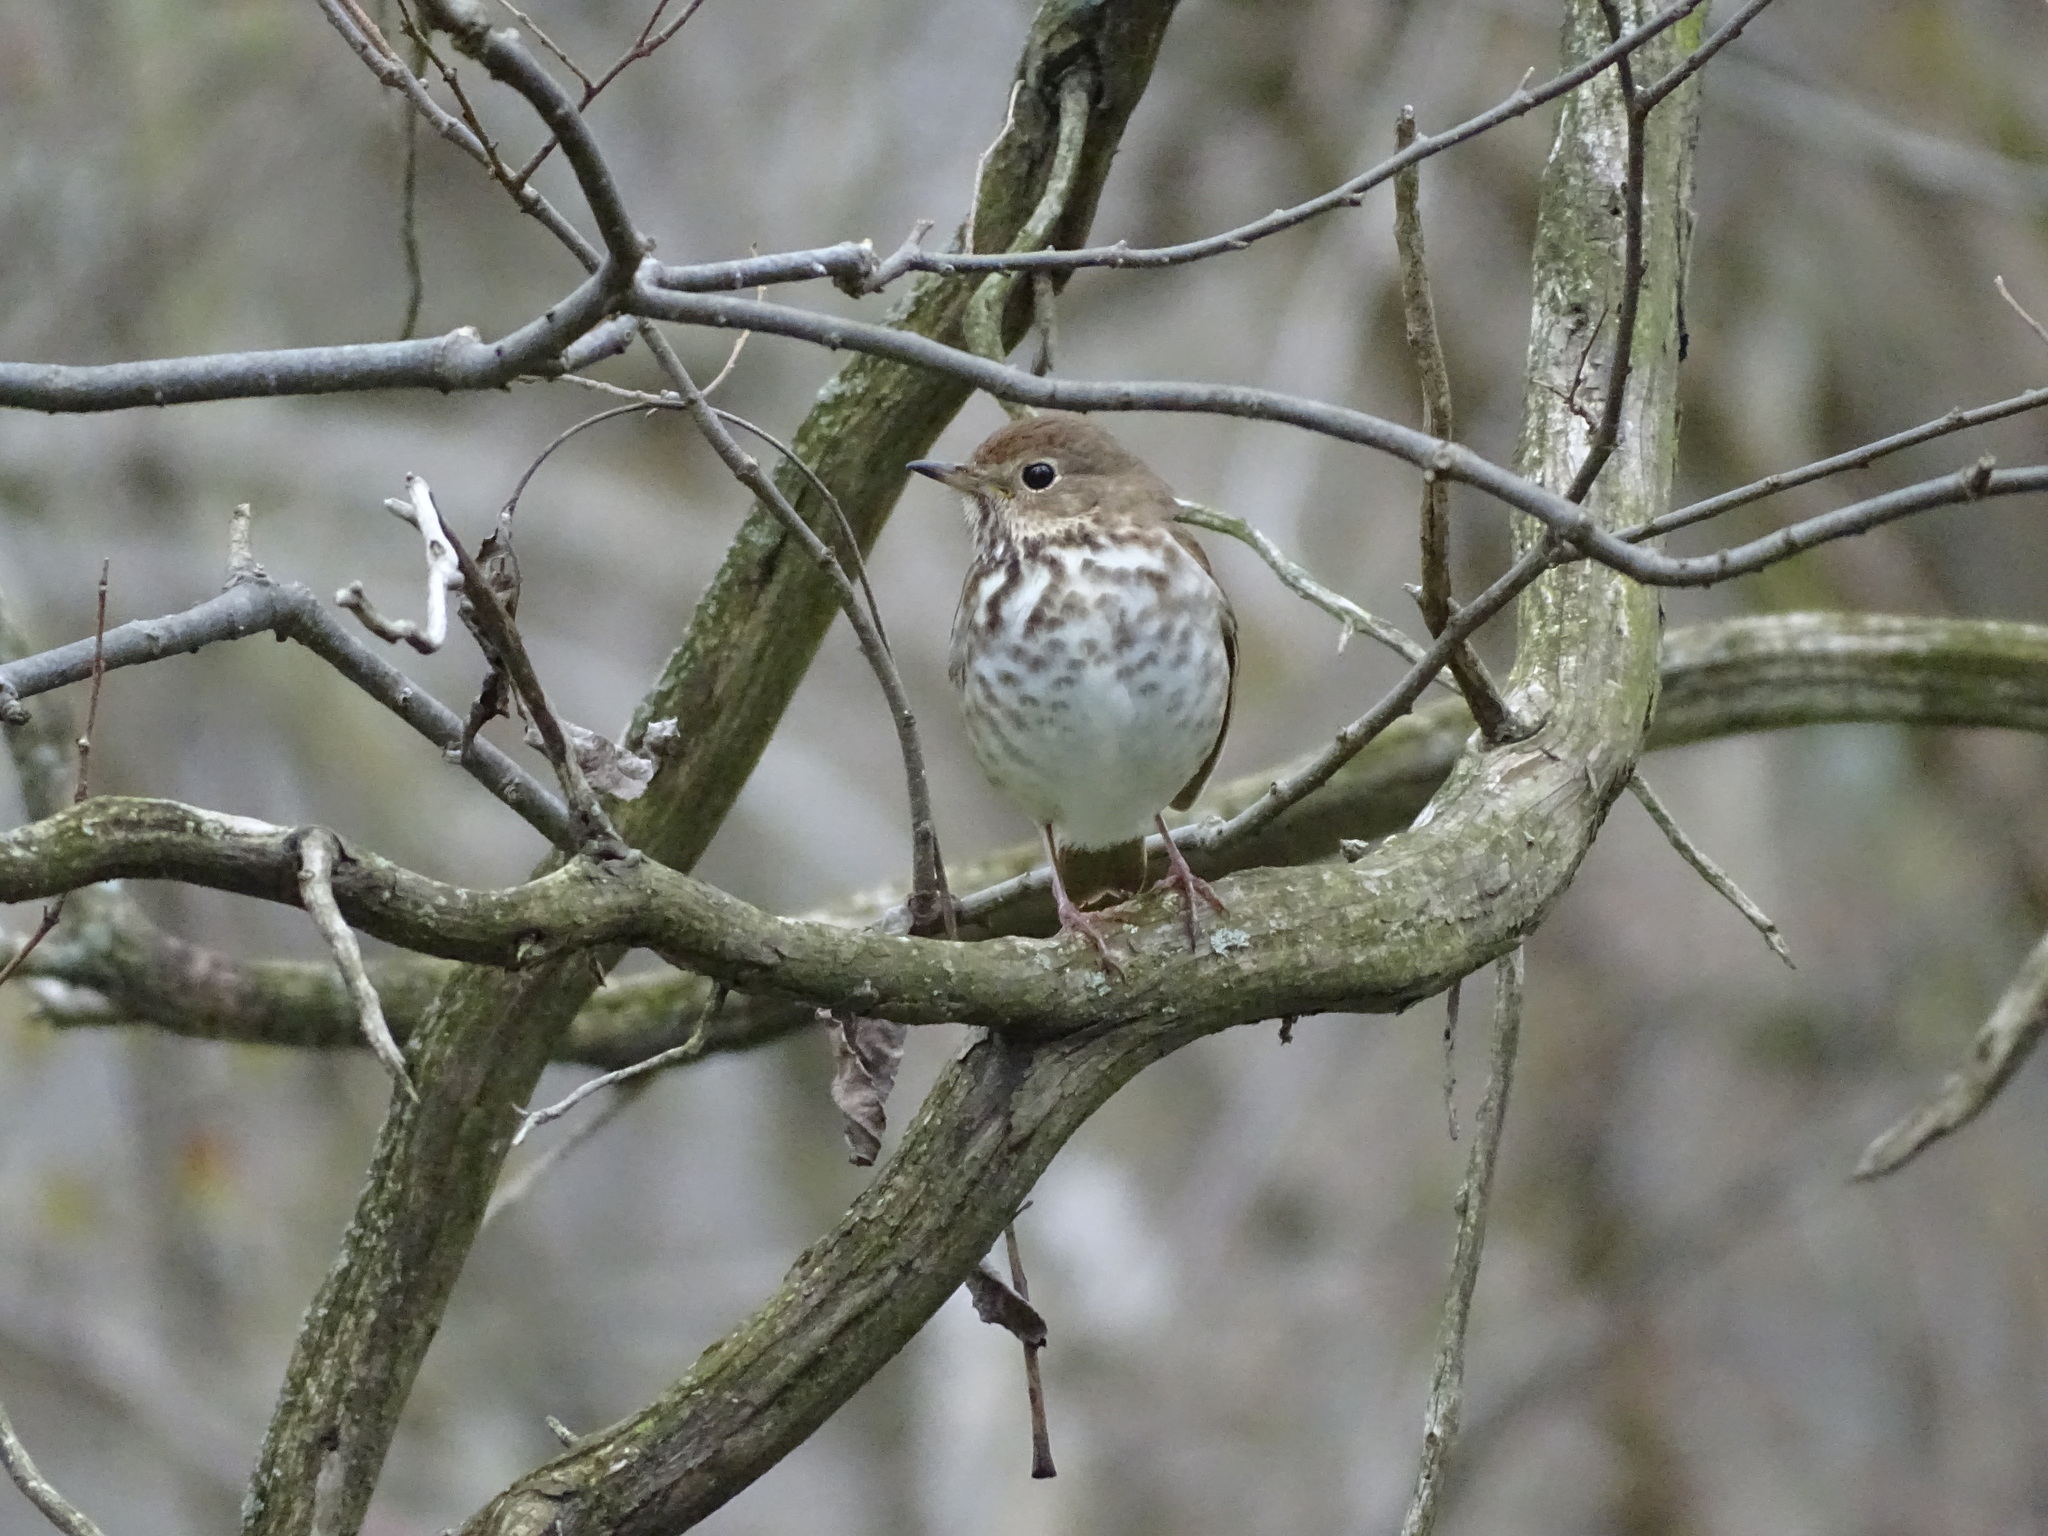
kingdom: Animalia
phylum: Chordata
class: Aves
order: Passeriformes
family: Turdidae
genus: Catharus
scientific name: Catharus guttatus
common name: Hermit thrush
